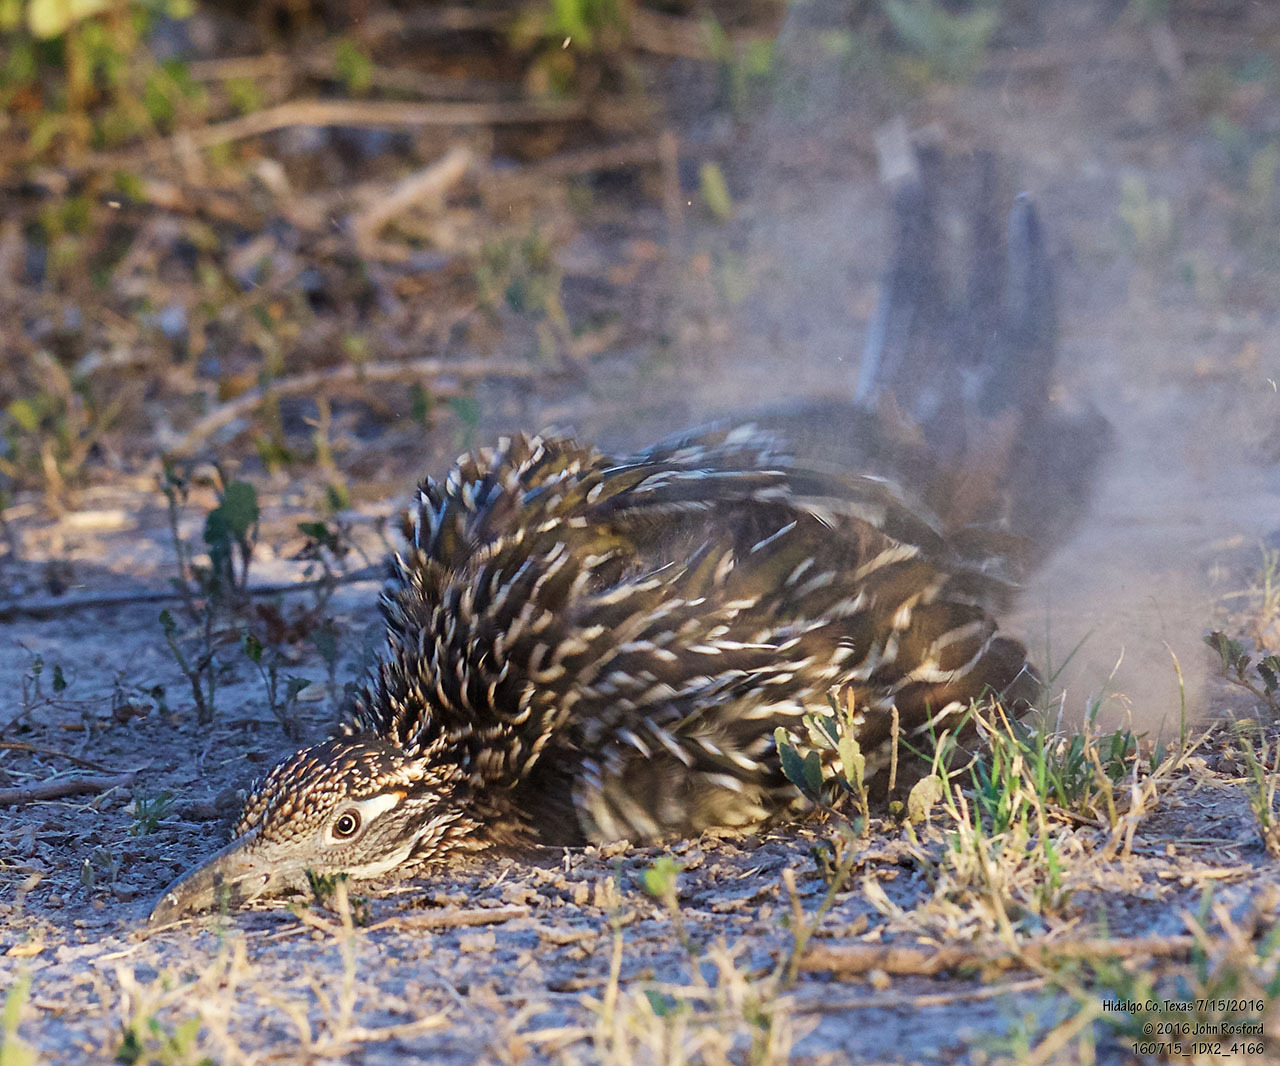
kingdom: Animalia
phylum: Chordata
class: Aves
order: Cuculiformes
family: Cuculidae
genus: Geococcyx
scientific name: Geococcyx californianus
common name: Greater roadrunner
